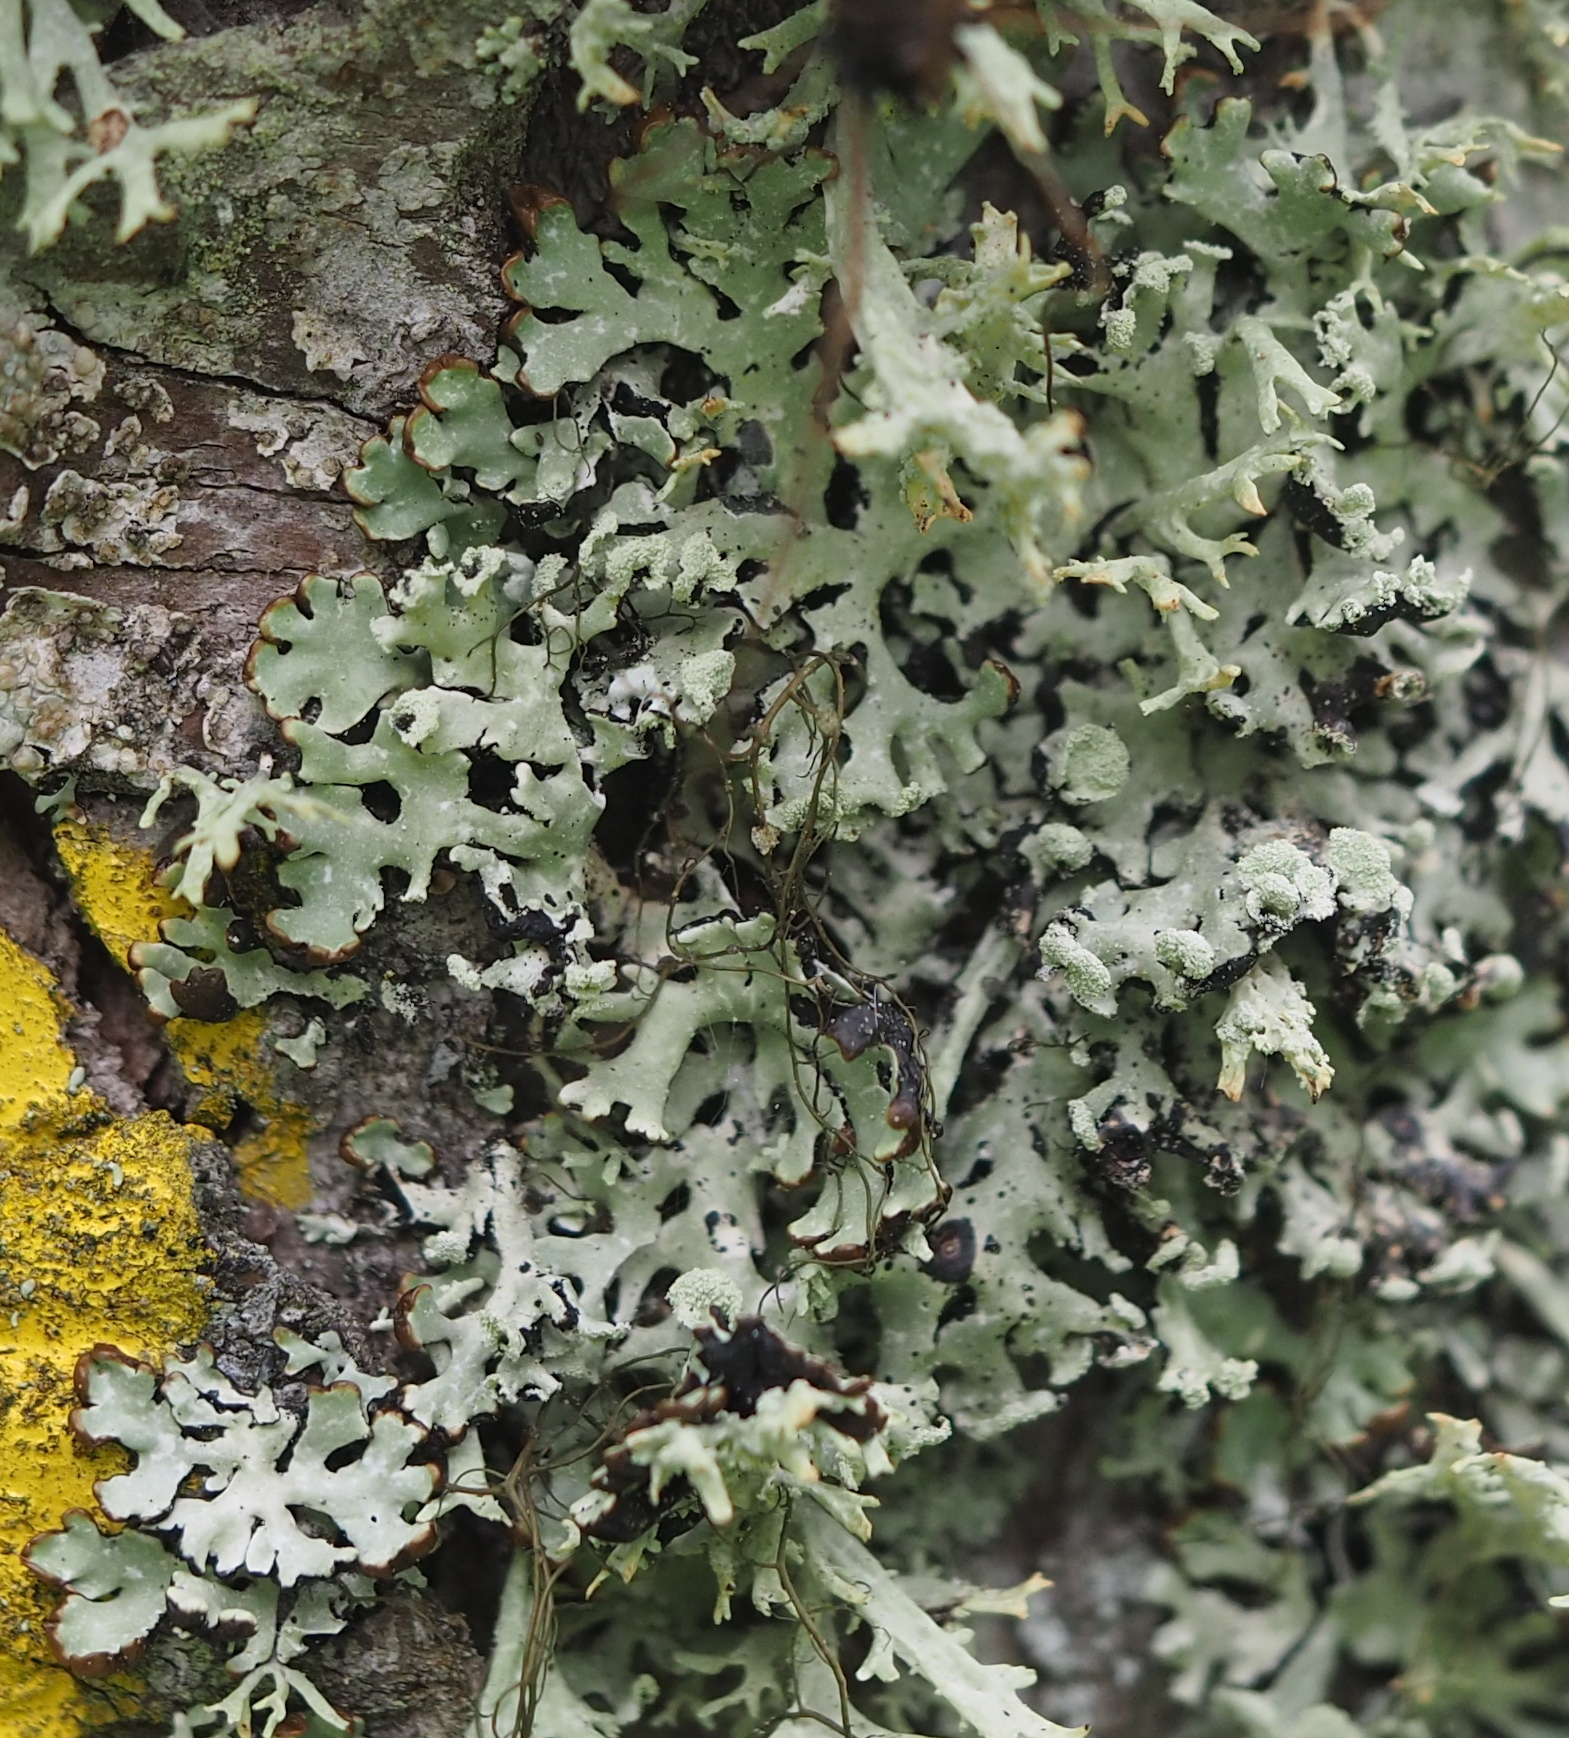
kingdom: Fungi
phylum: Ascomycota
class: Lecanoromycetes
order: Lecanorales
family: Parmeliaceae
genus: Hypogymnia
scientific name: Hypogymnia physodes
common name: Dark crottle
